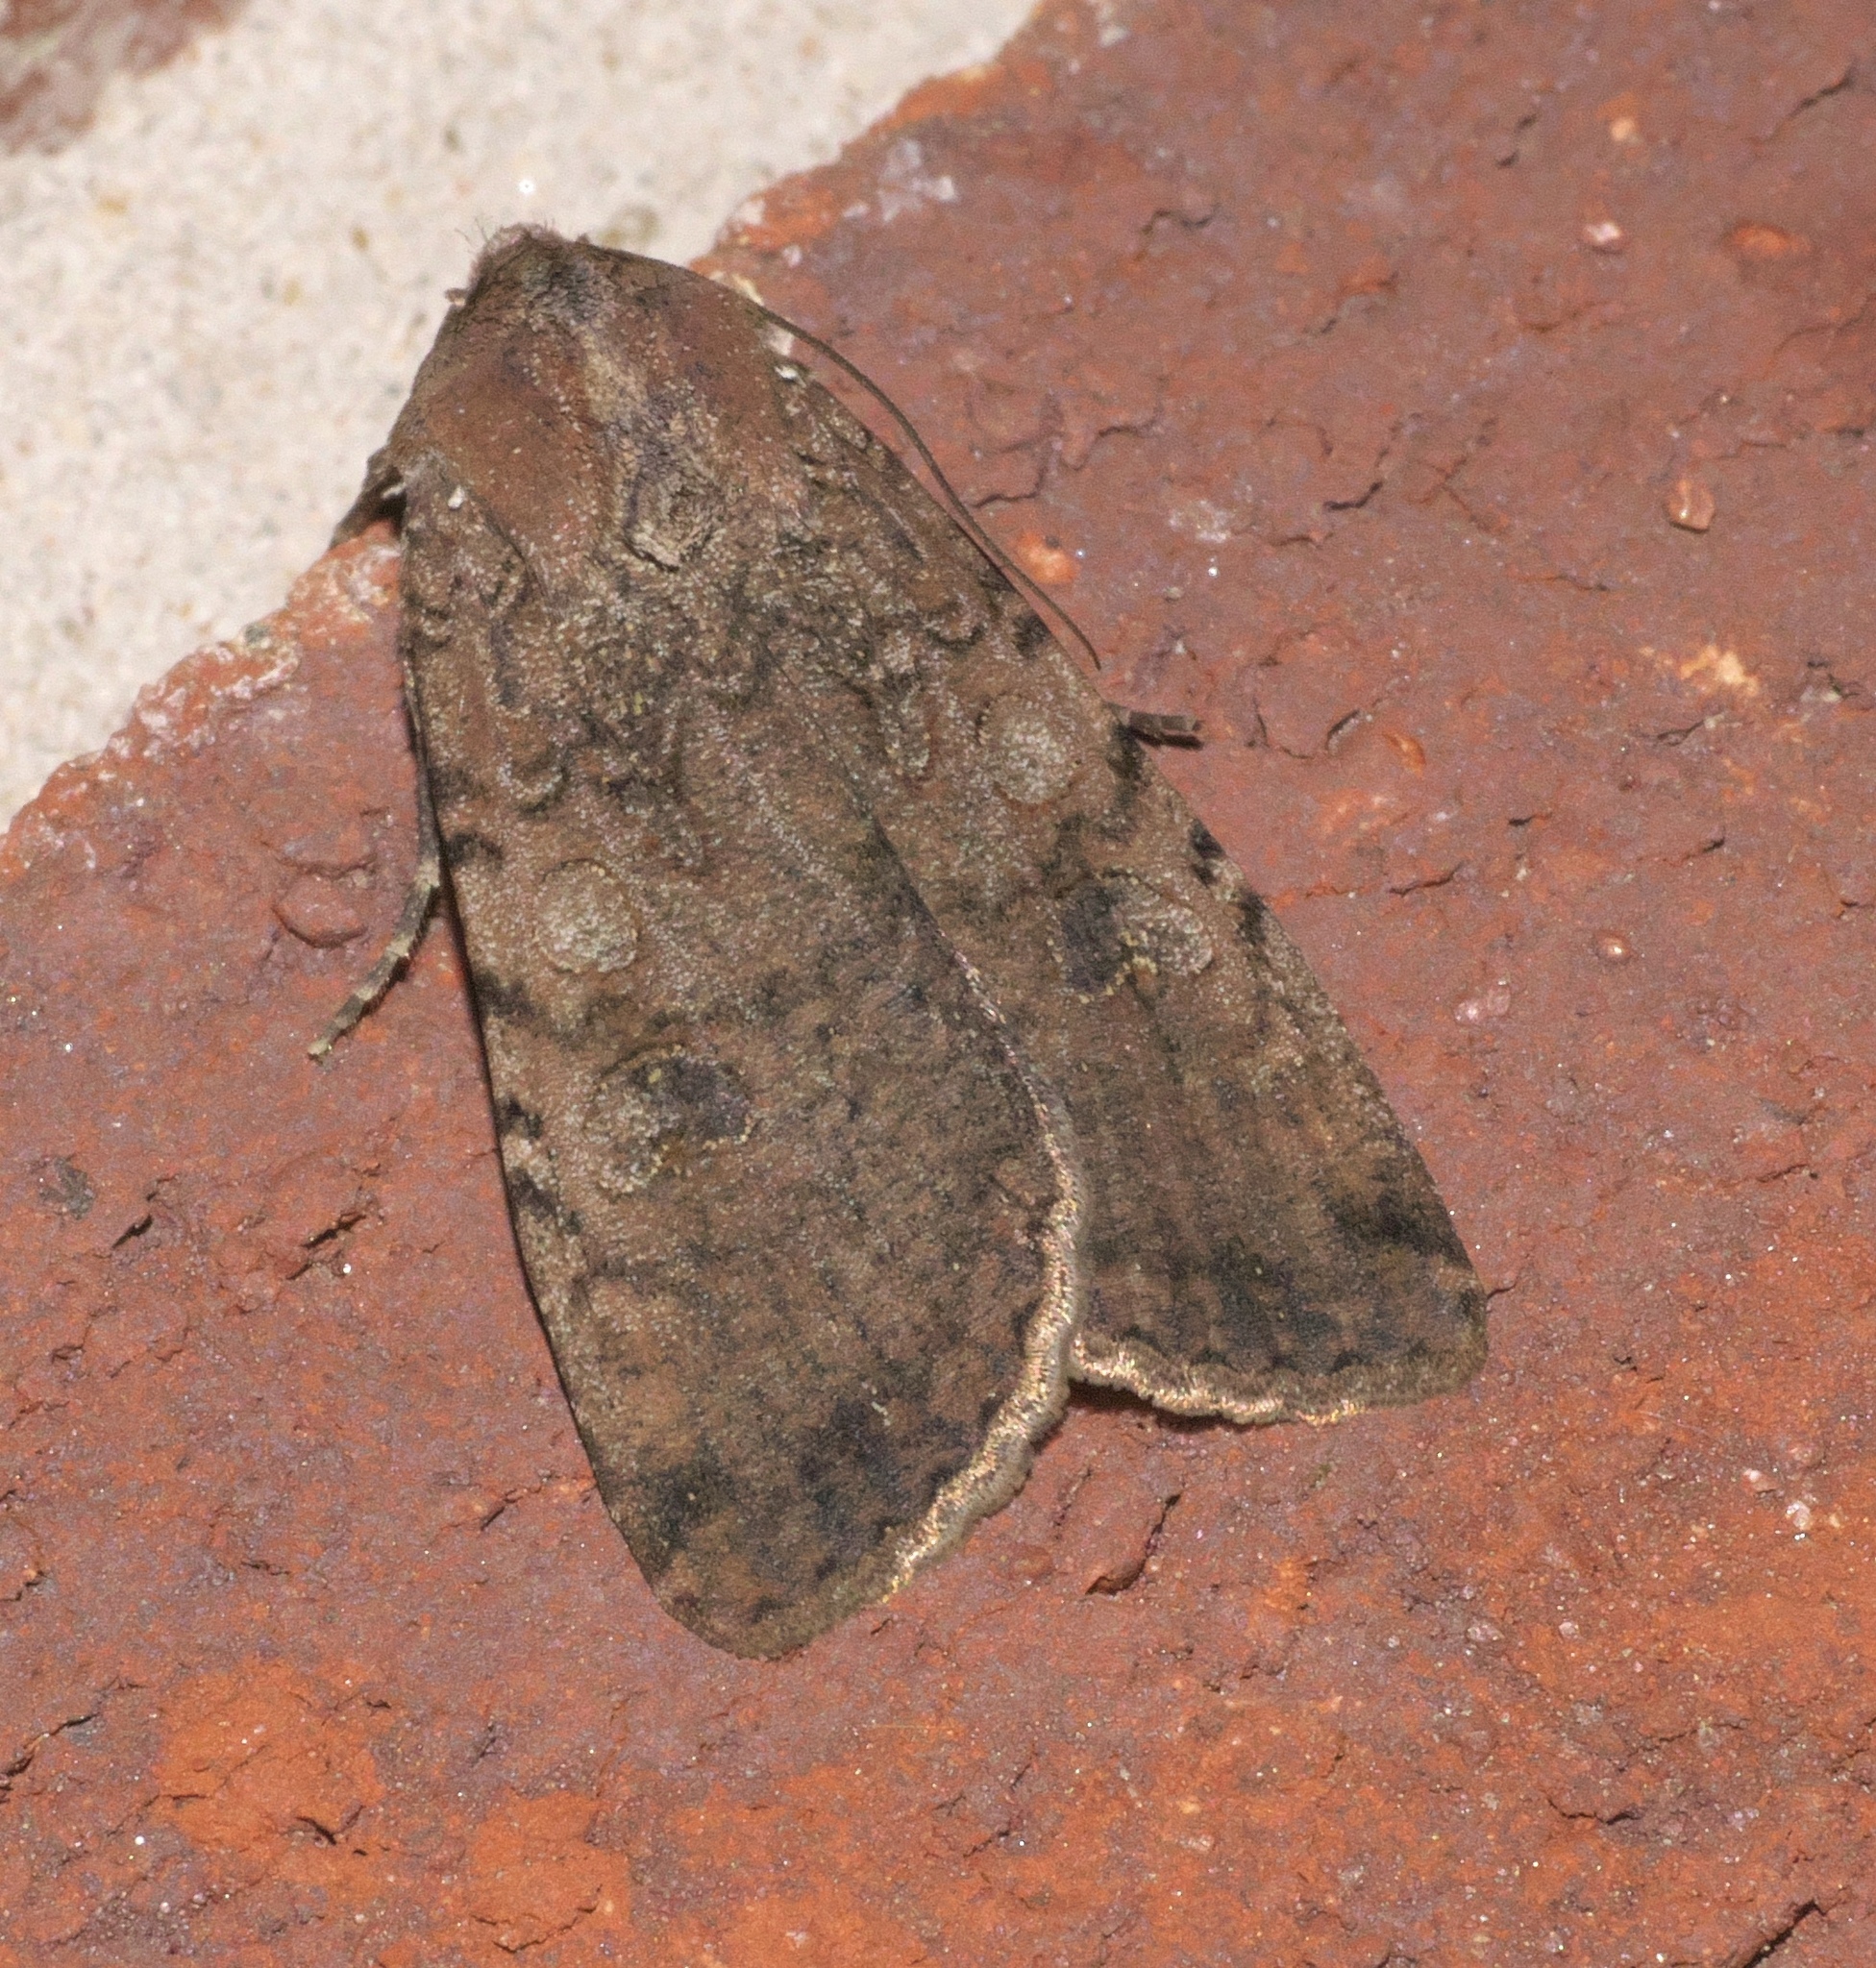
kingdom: Animalia
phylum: Arthropoda
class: Insecta
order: Lepidoptera
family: Noctuidae
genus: Peridroma
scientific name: Peridroma saucia
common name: Pearly underwing
